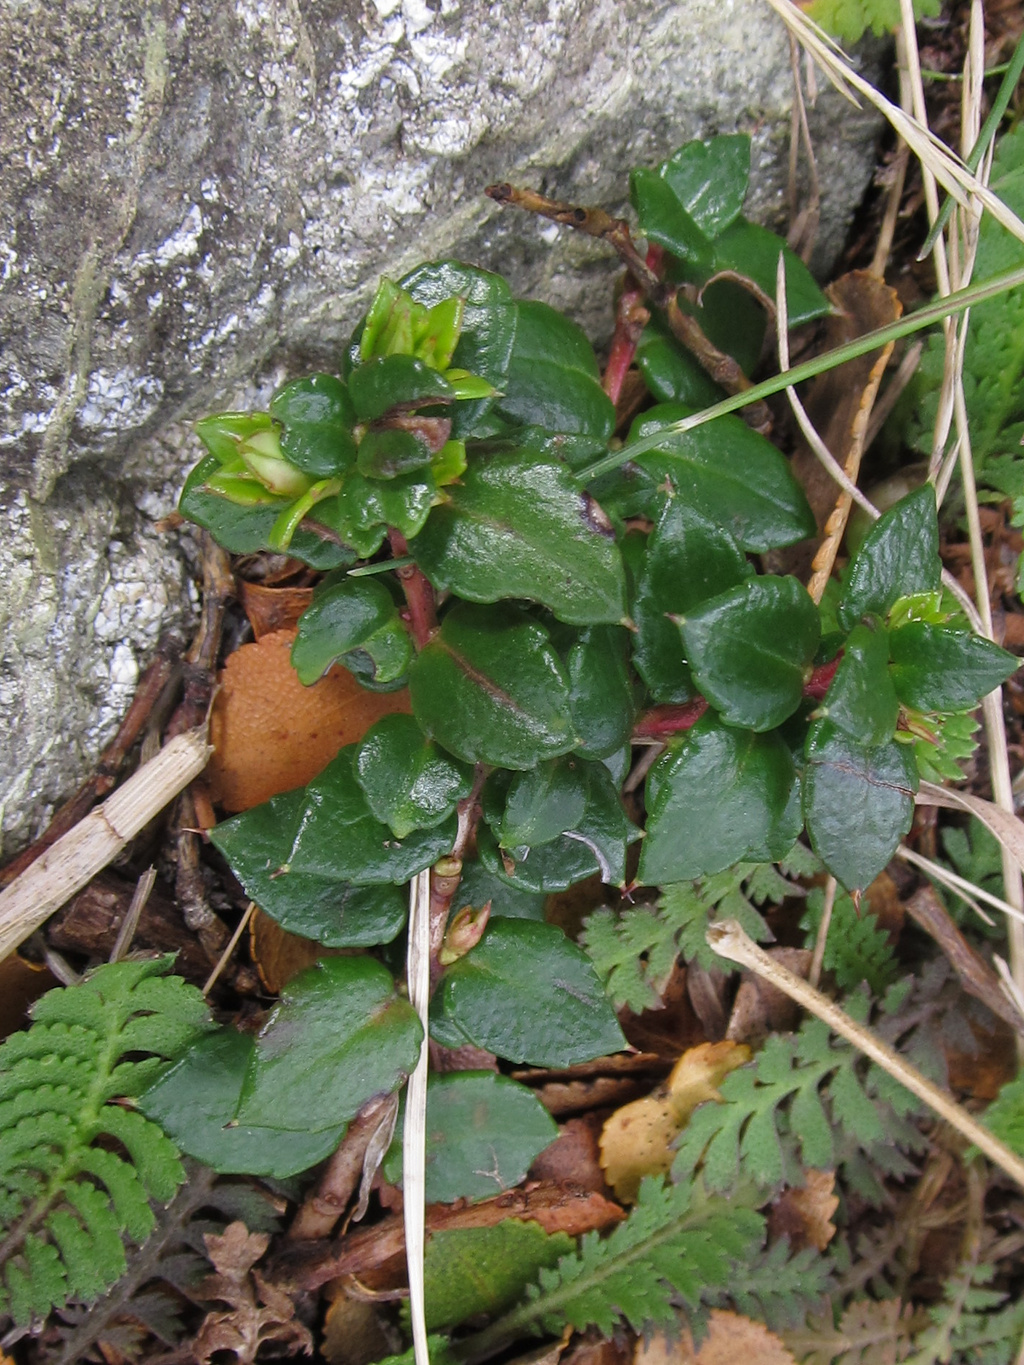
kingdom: Plantae
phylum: Tracheophyta
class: Magnoliopsida
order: Ericales
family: Ericaceae
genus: Gaultheria
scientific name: Gaultheria mucronata
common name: Prickly heath
